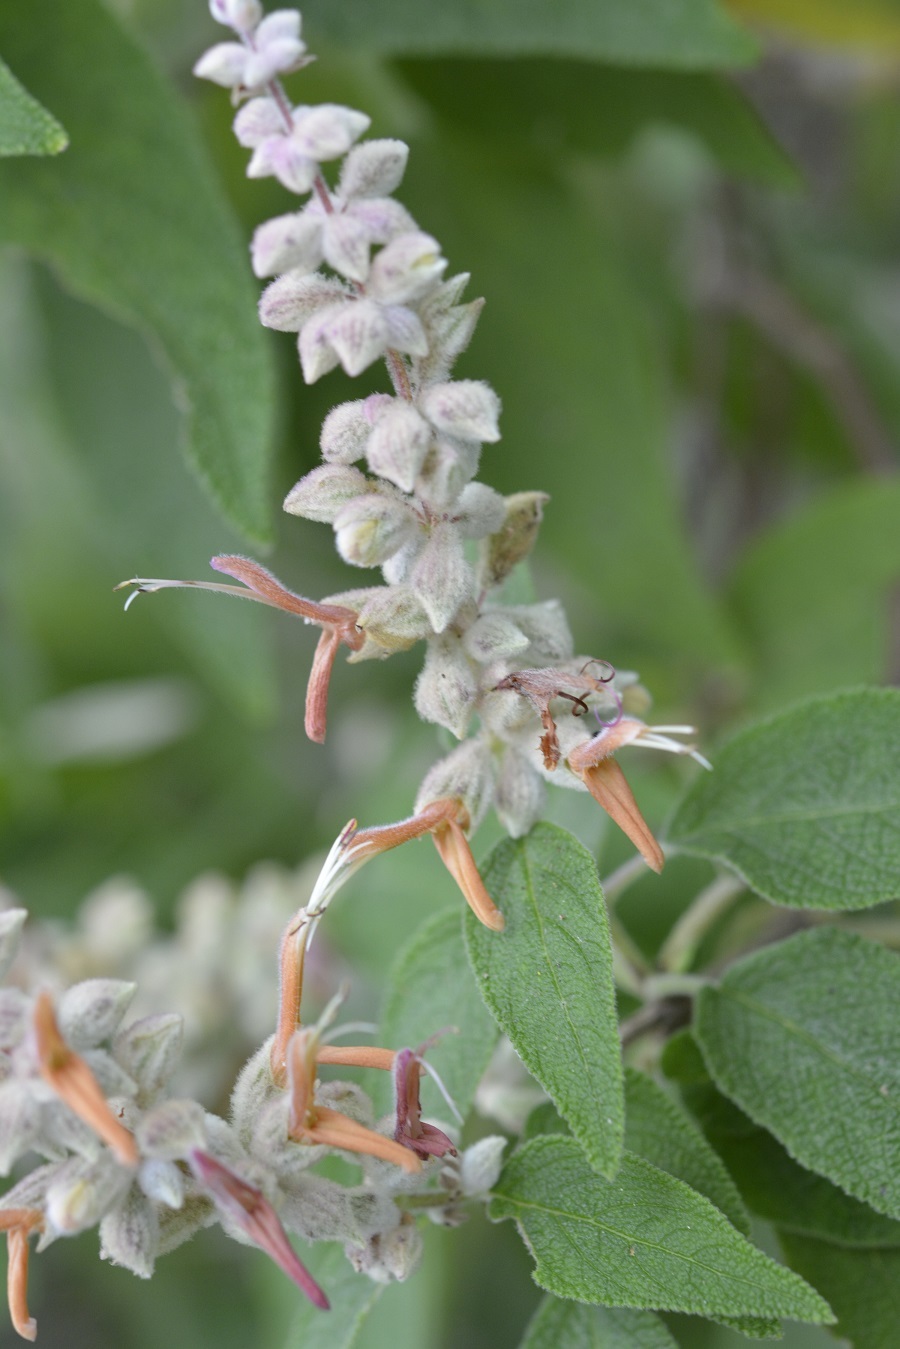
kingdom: Plantae
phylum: Tracheophyta
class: Magnoliopsida
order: Lamiales
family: Lamiaceae
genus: Salvia
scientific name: Salvia lasiantha
